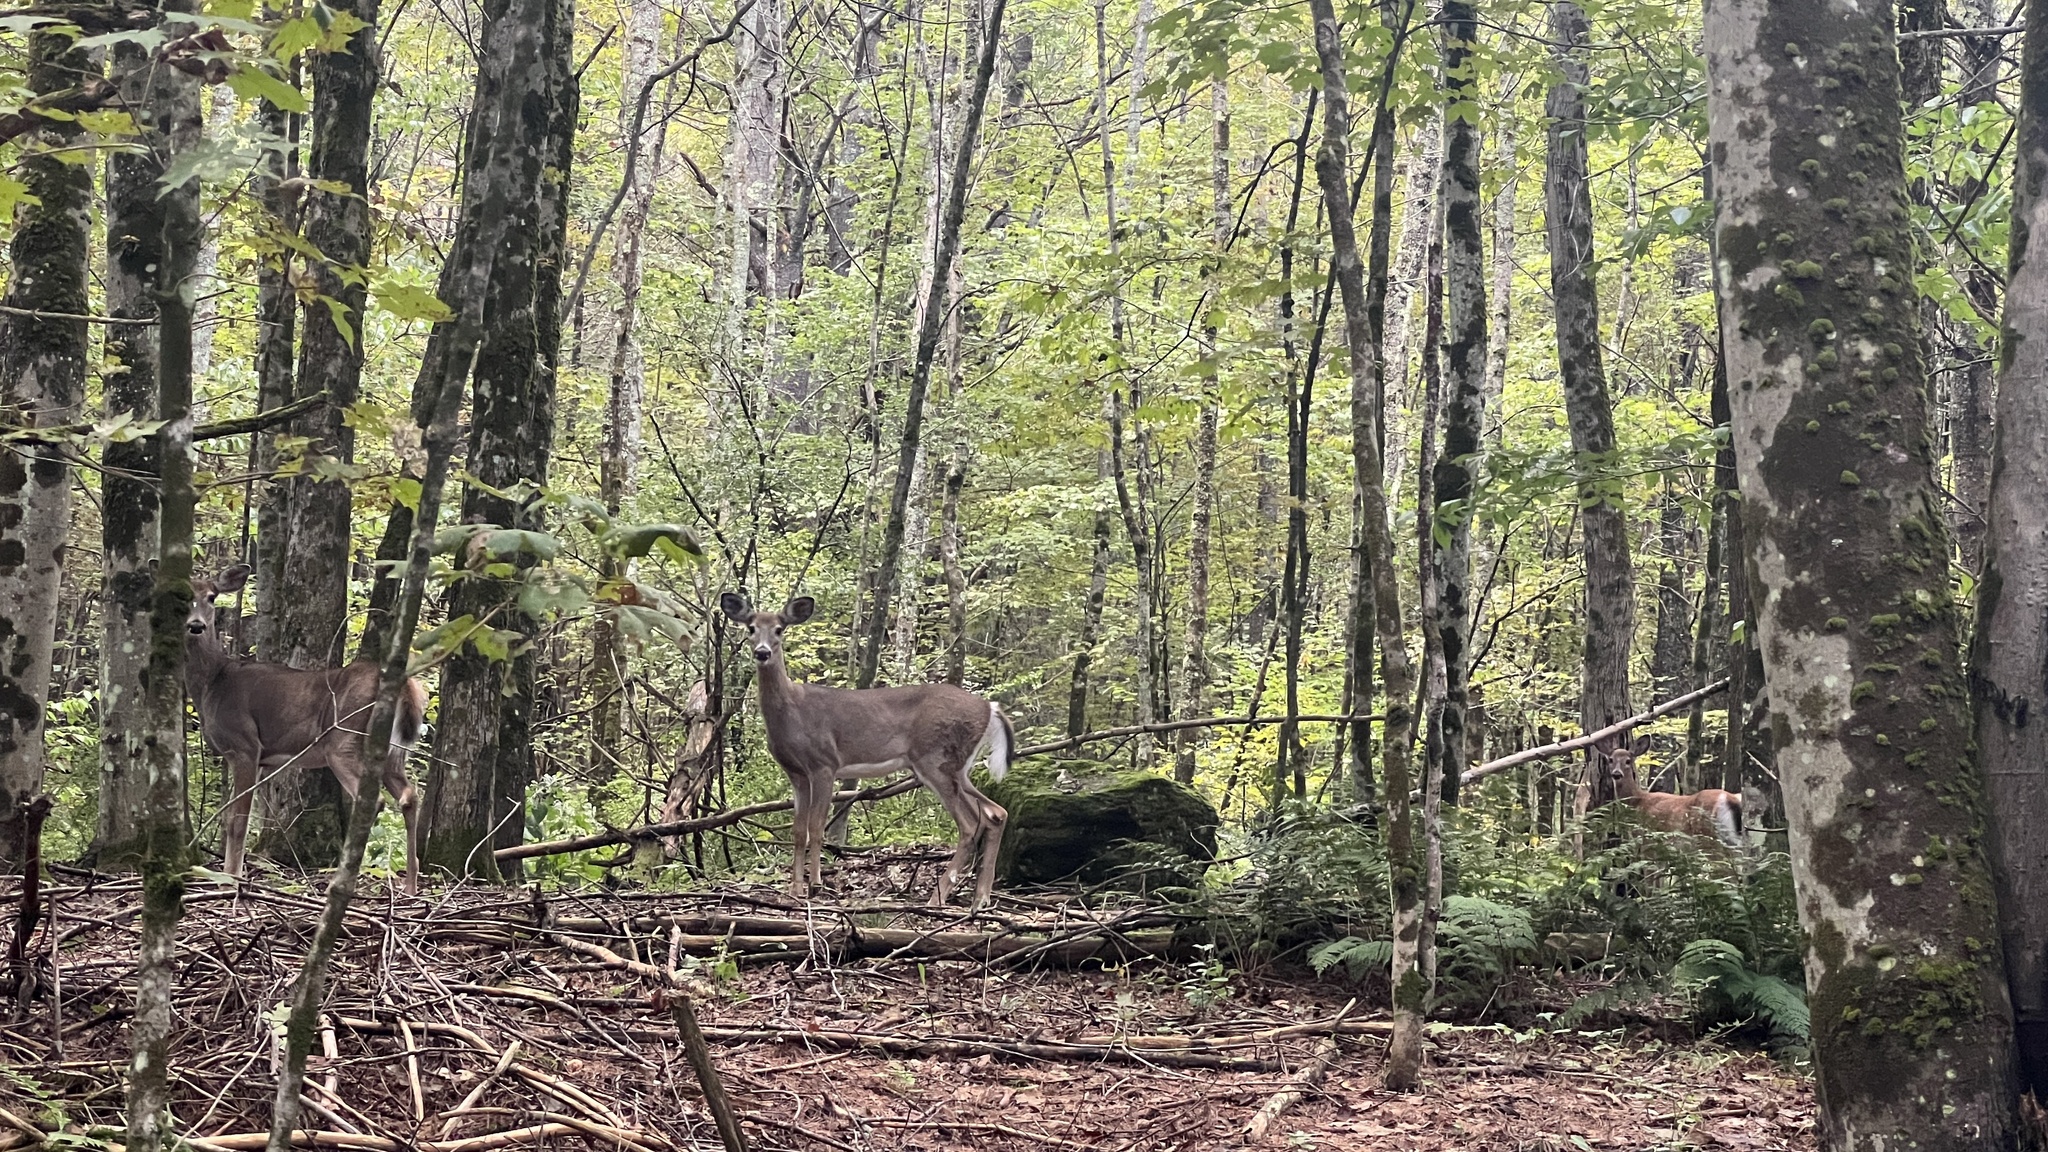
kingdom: Animalia
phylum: Chordata
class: Mammalia
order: Artiodactyla
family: Cervidae
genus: Odocoileus
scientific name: Odocoileus virginianus
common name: White-tailed deer
